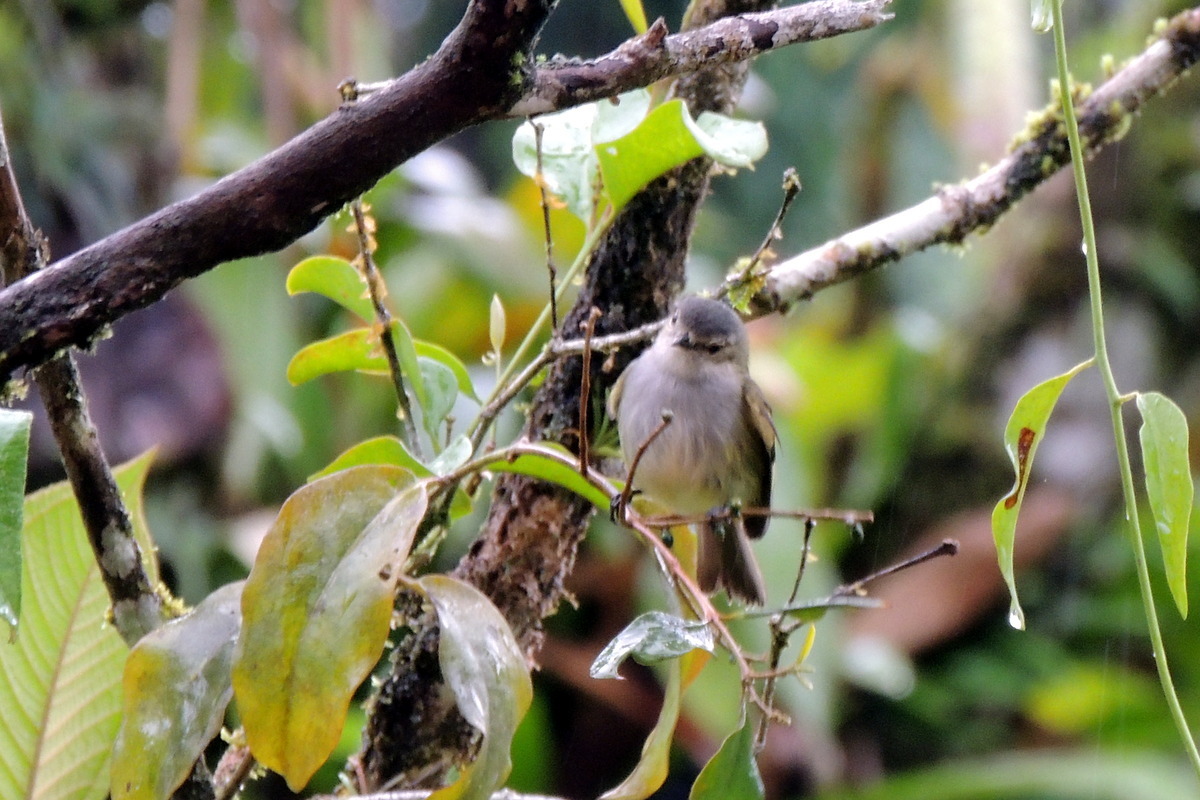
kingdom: Animalia
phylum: Chordata
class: Aves
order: Passeriformes
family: Tyrannidae
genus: Zimmerius
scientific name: Zimmerius vilissimus
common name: Paltry tyrannulet
